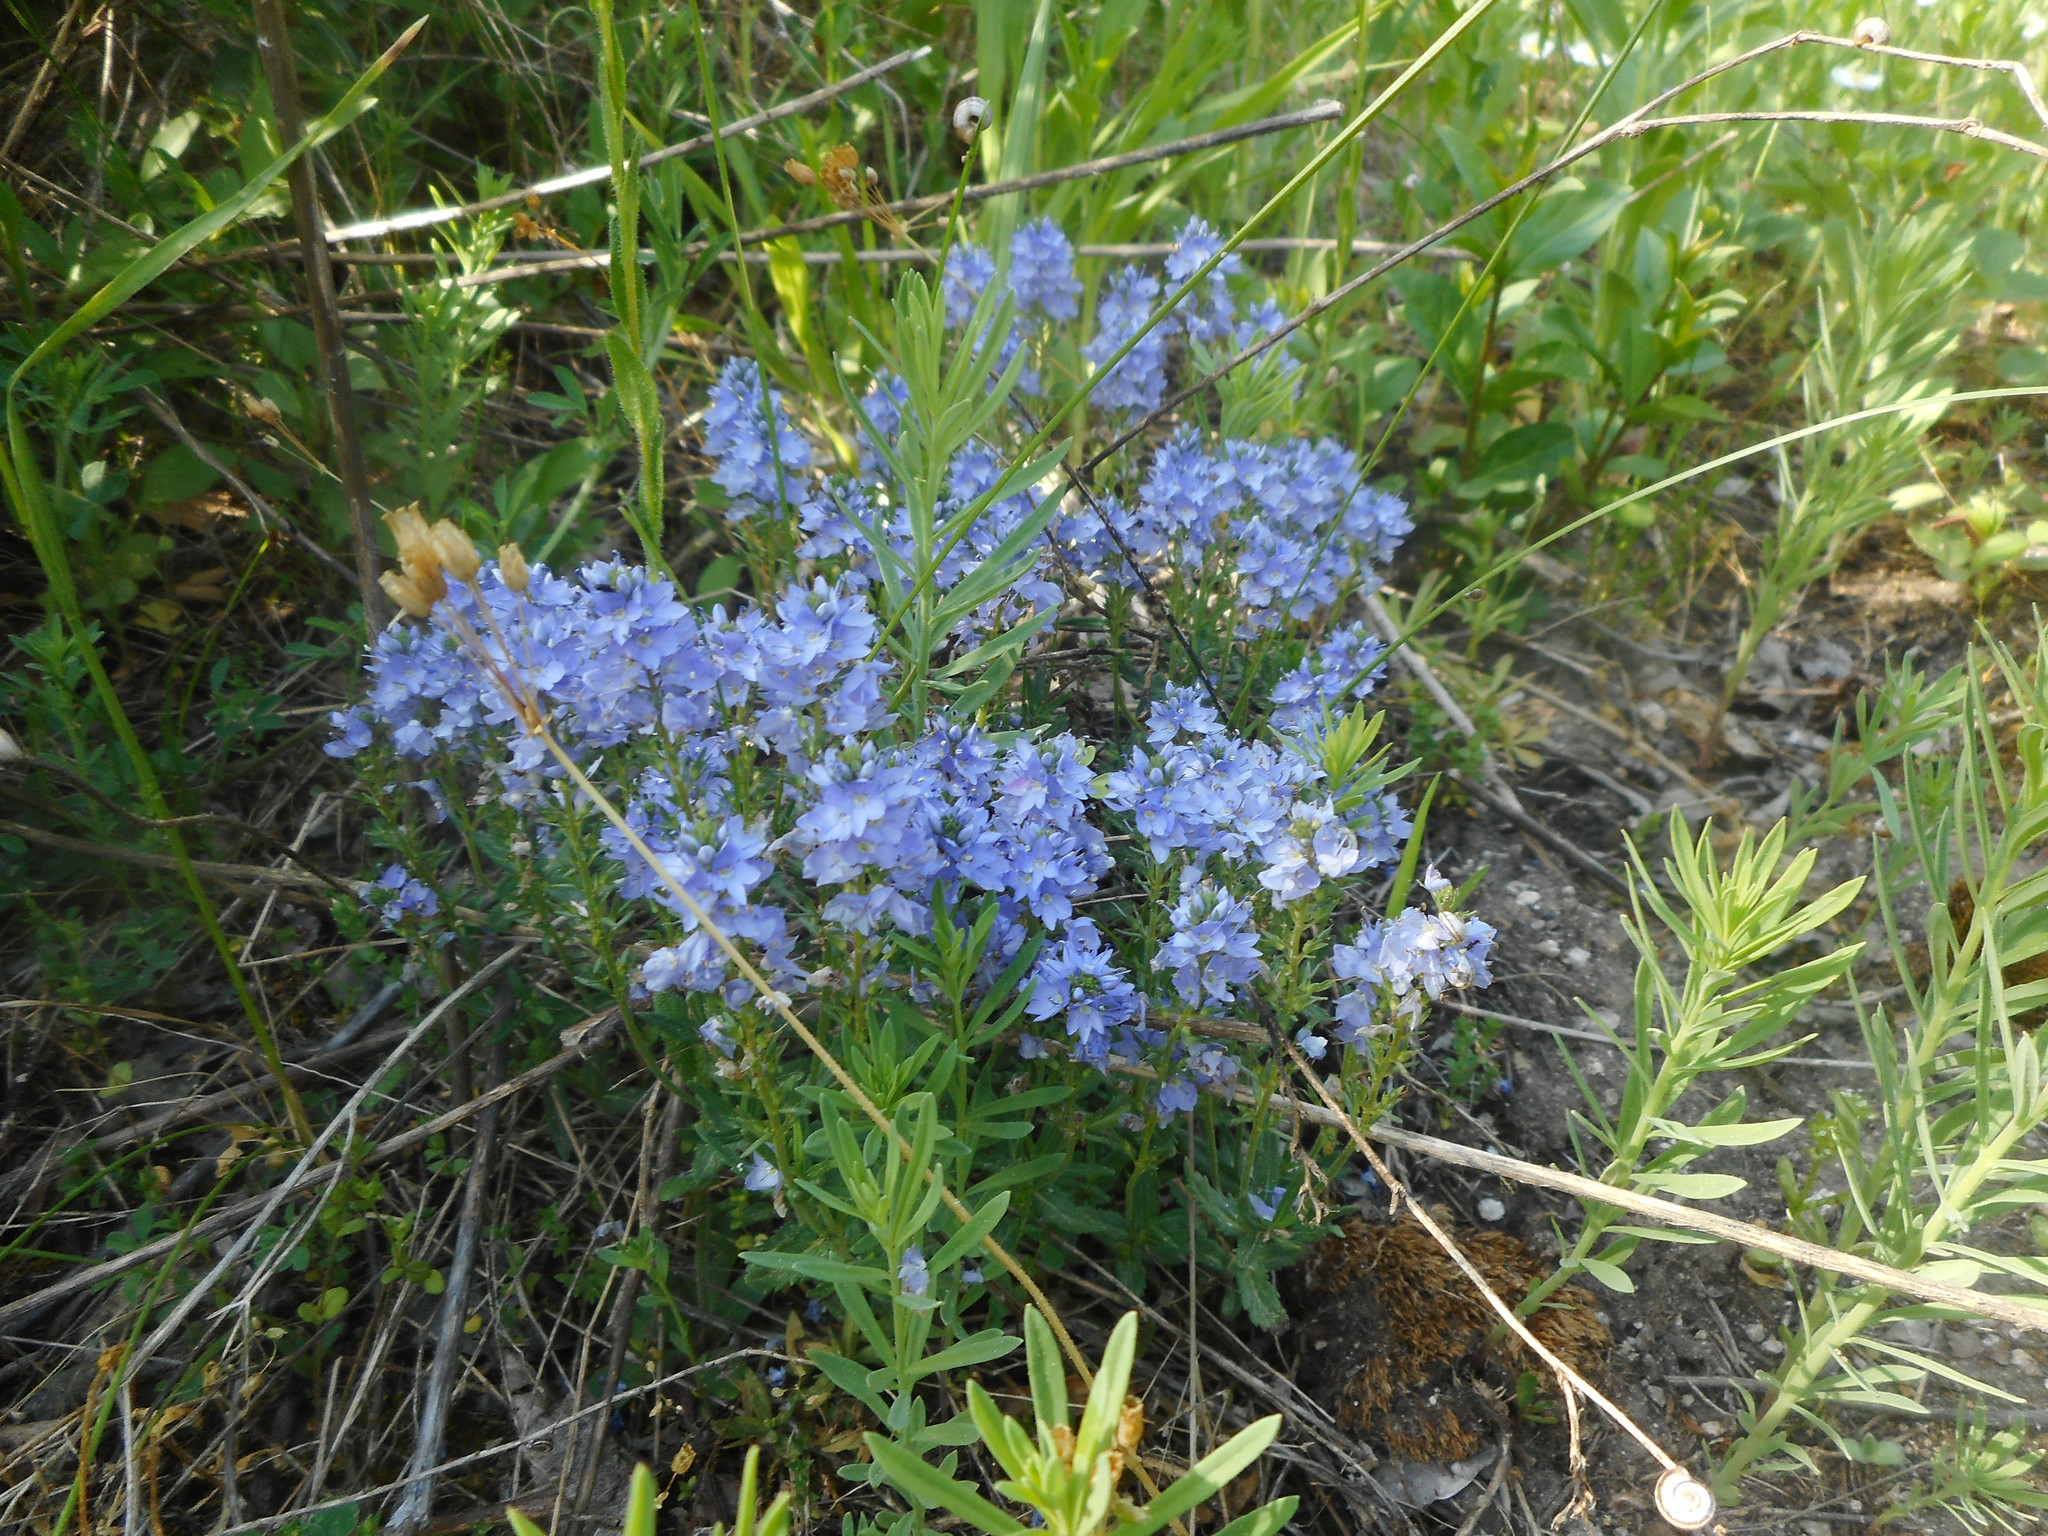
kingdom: Plantae
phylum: Tracheophyta
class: Magnoliopsida
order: Lamiales
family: Plantaginaceae
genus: Veronica
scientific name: Veronica prostrata
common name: Prostrate speedwell
